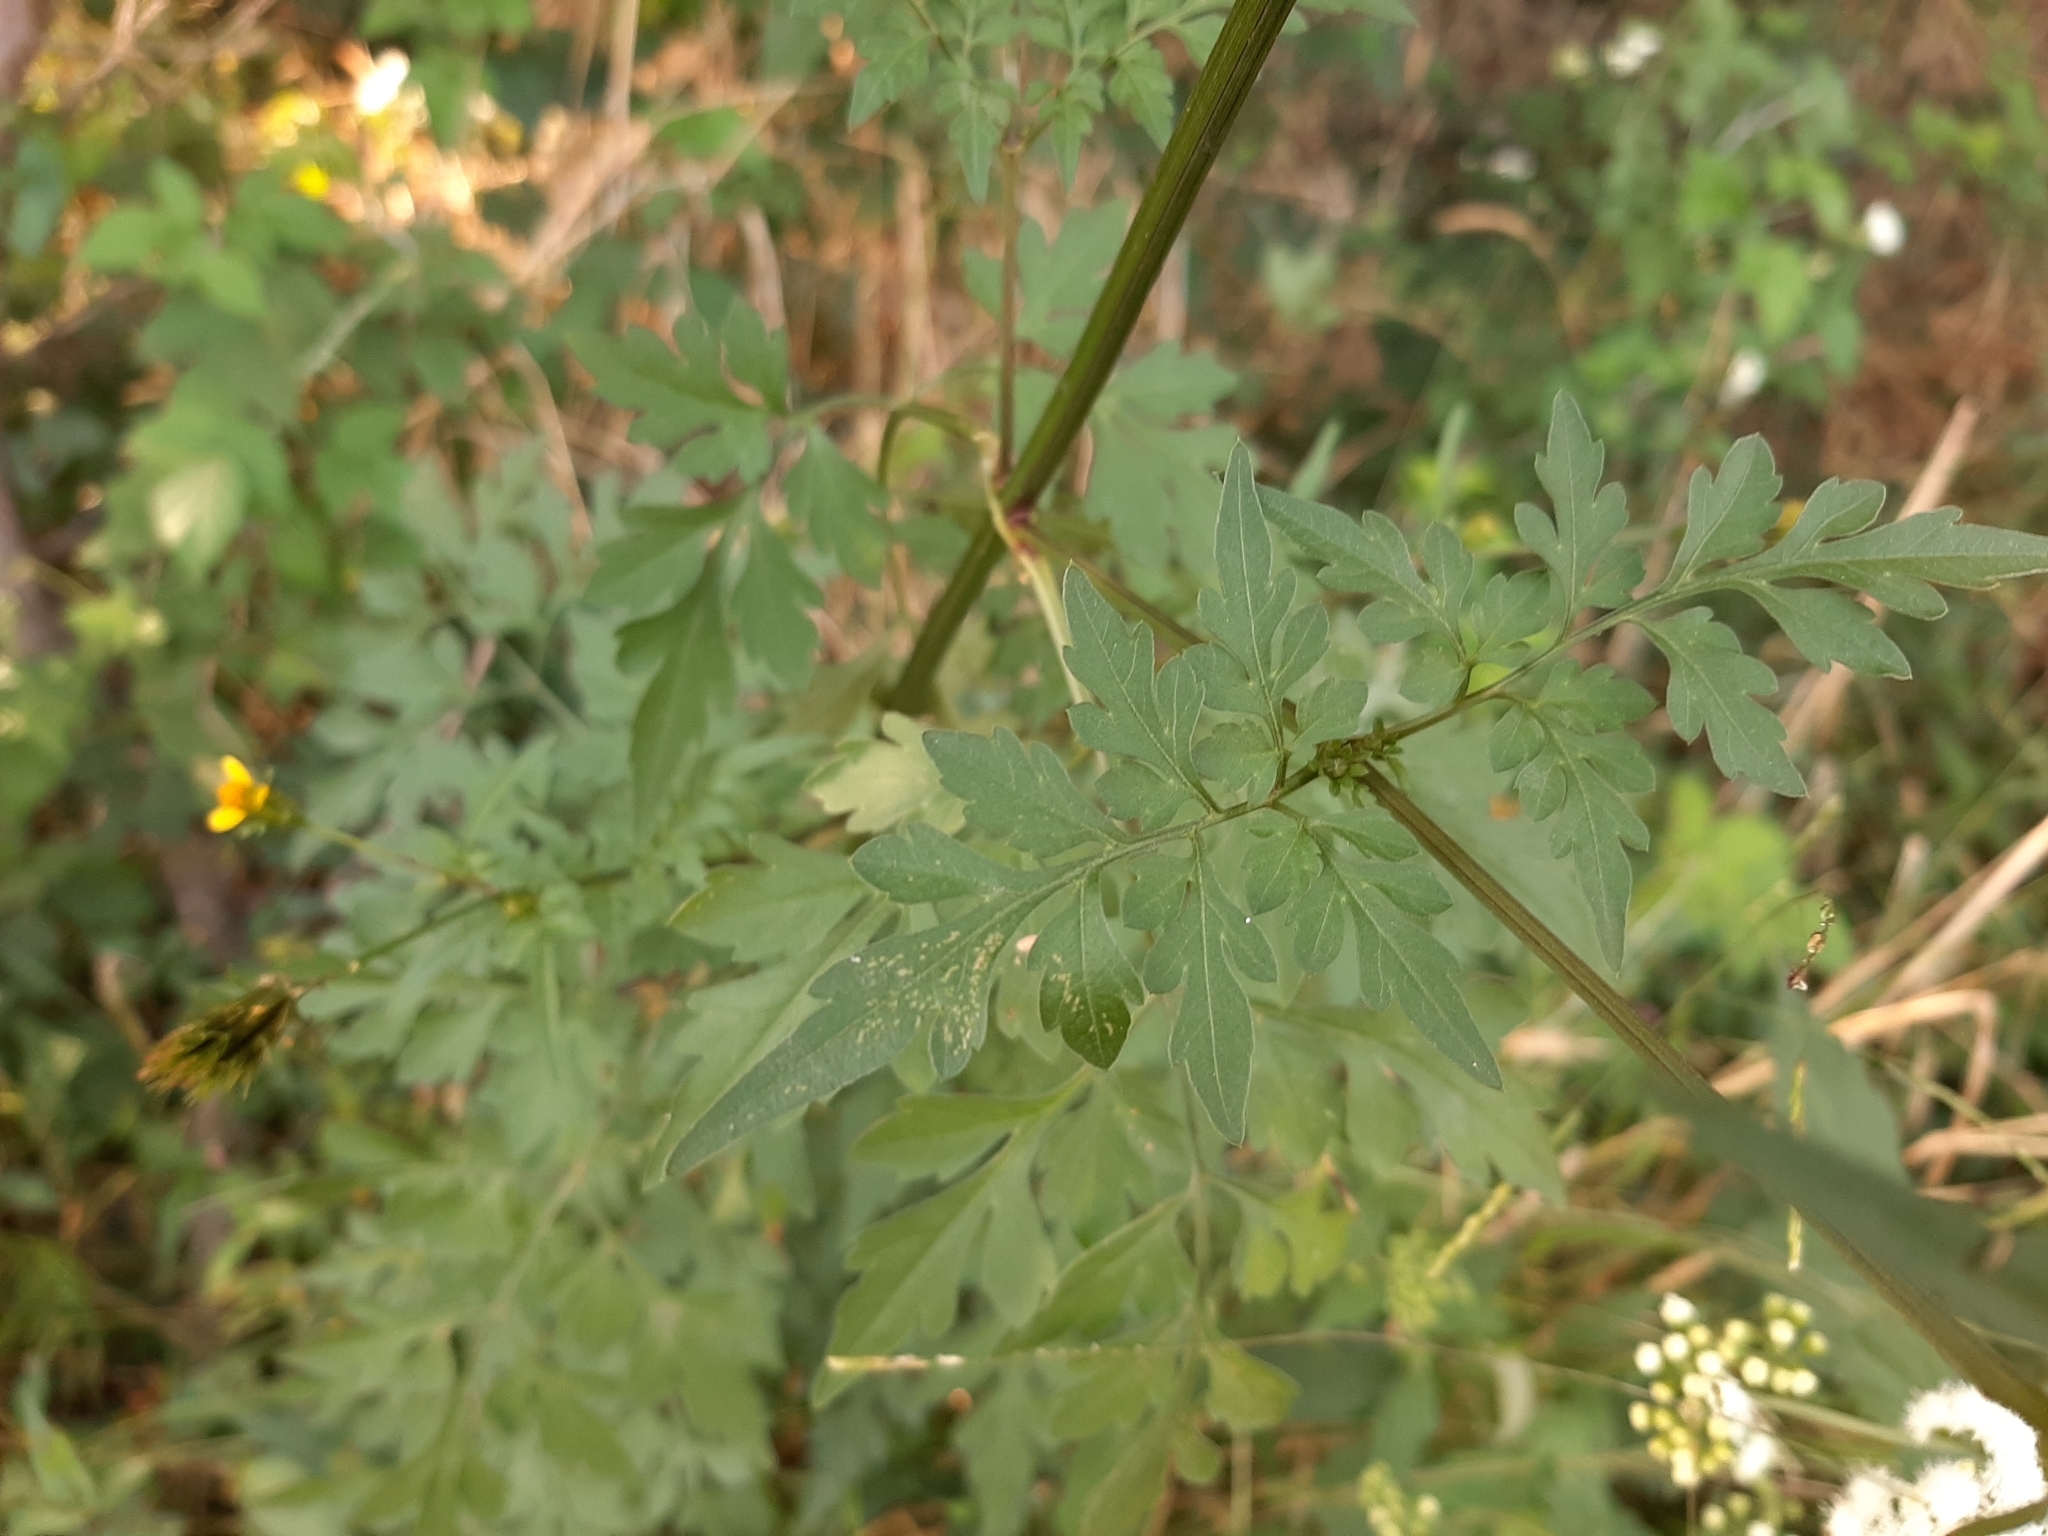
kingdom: Plantae
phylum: Tracheophyta
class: Magnoliopsida
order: Asterales
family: Asteraceae
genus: Bidens
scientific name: Bidens bipinnata
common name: Spanish-needles
